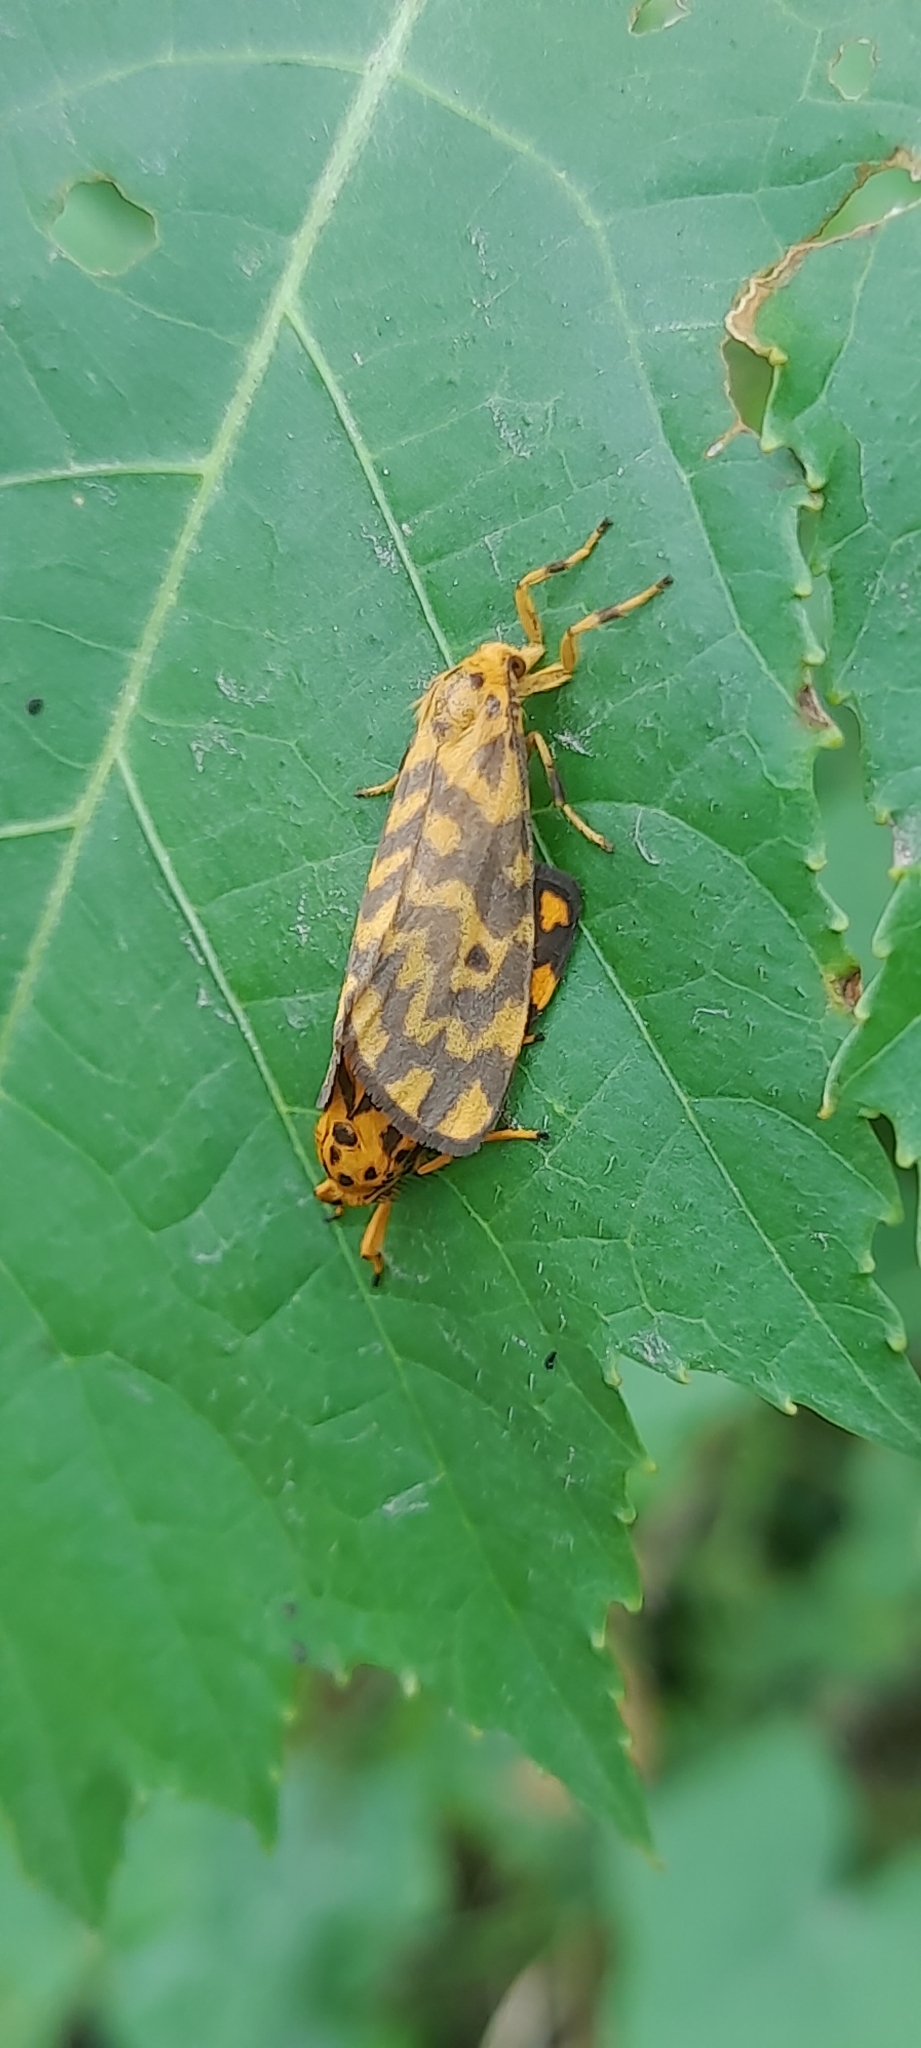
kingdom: Animalia
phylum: Arthropoda
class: Insecta
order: Lepidoptera
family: Erebidae
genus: Nepita
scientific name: Nepita conferta
